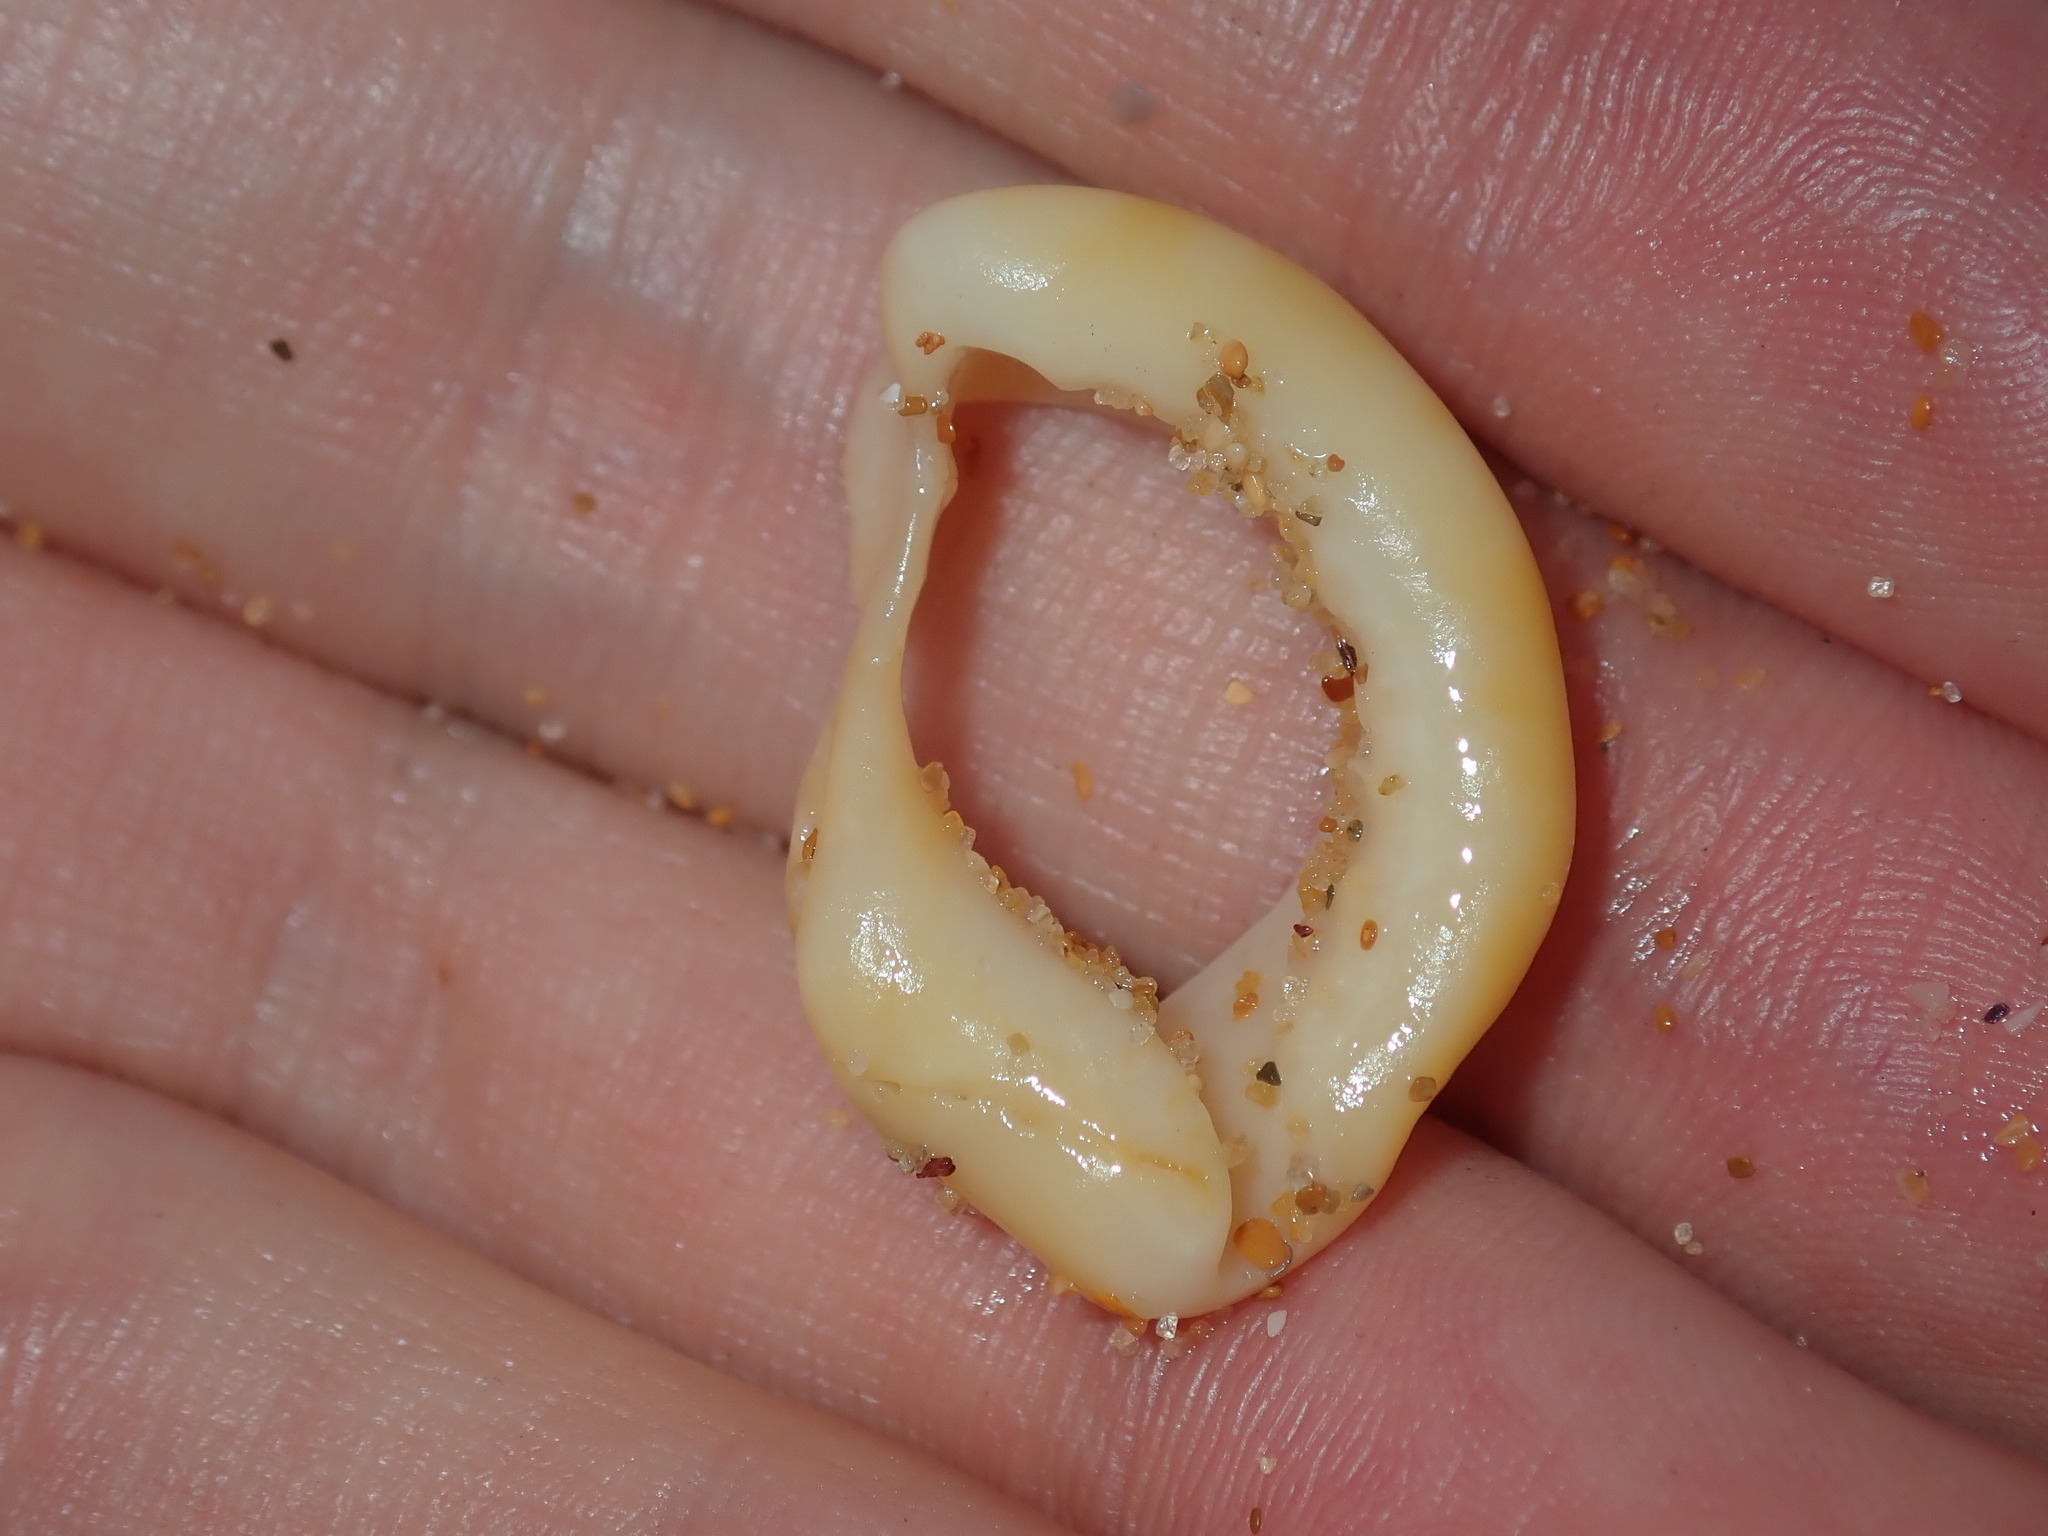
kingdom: Animalia
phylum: Mollusca
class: Gastropoda
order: Littorinimorpha
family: Cymatiidae
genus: Austrosassia
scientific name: Austrosassia parkinsonia
